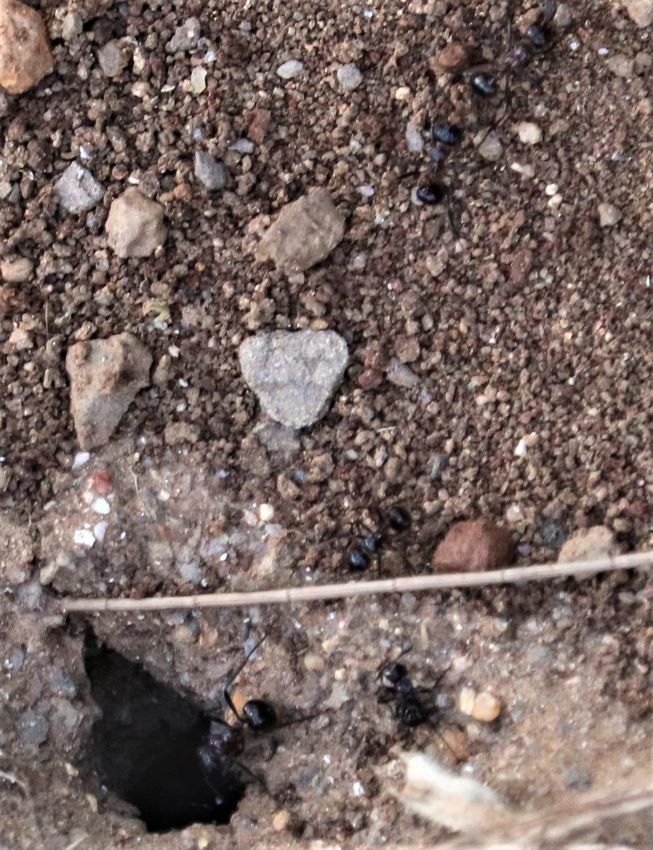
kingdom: Animalia
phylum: Arthropoda
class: Insecta
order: Hymenoptera
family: Formicidae
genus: Myrmicaria
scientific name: Myrmicaria natalensis
